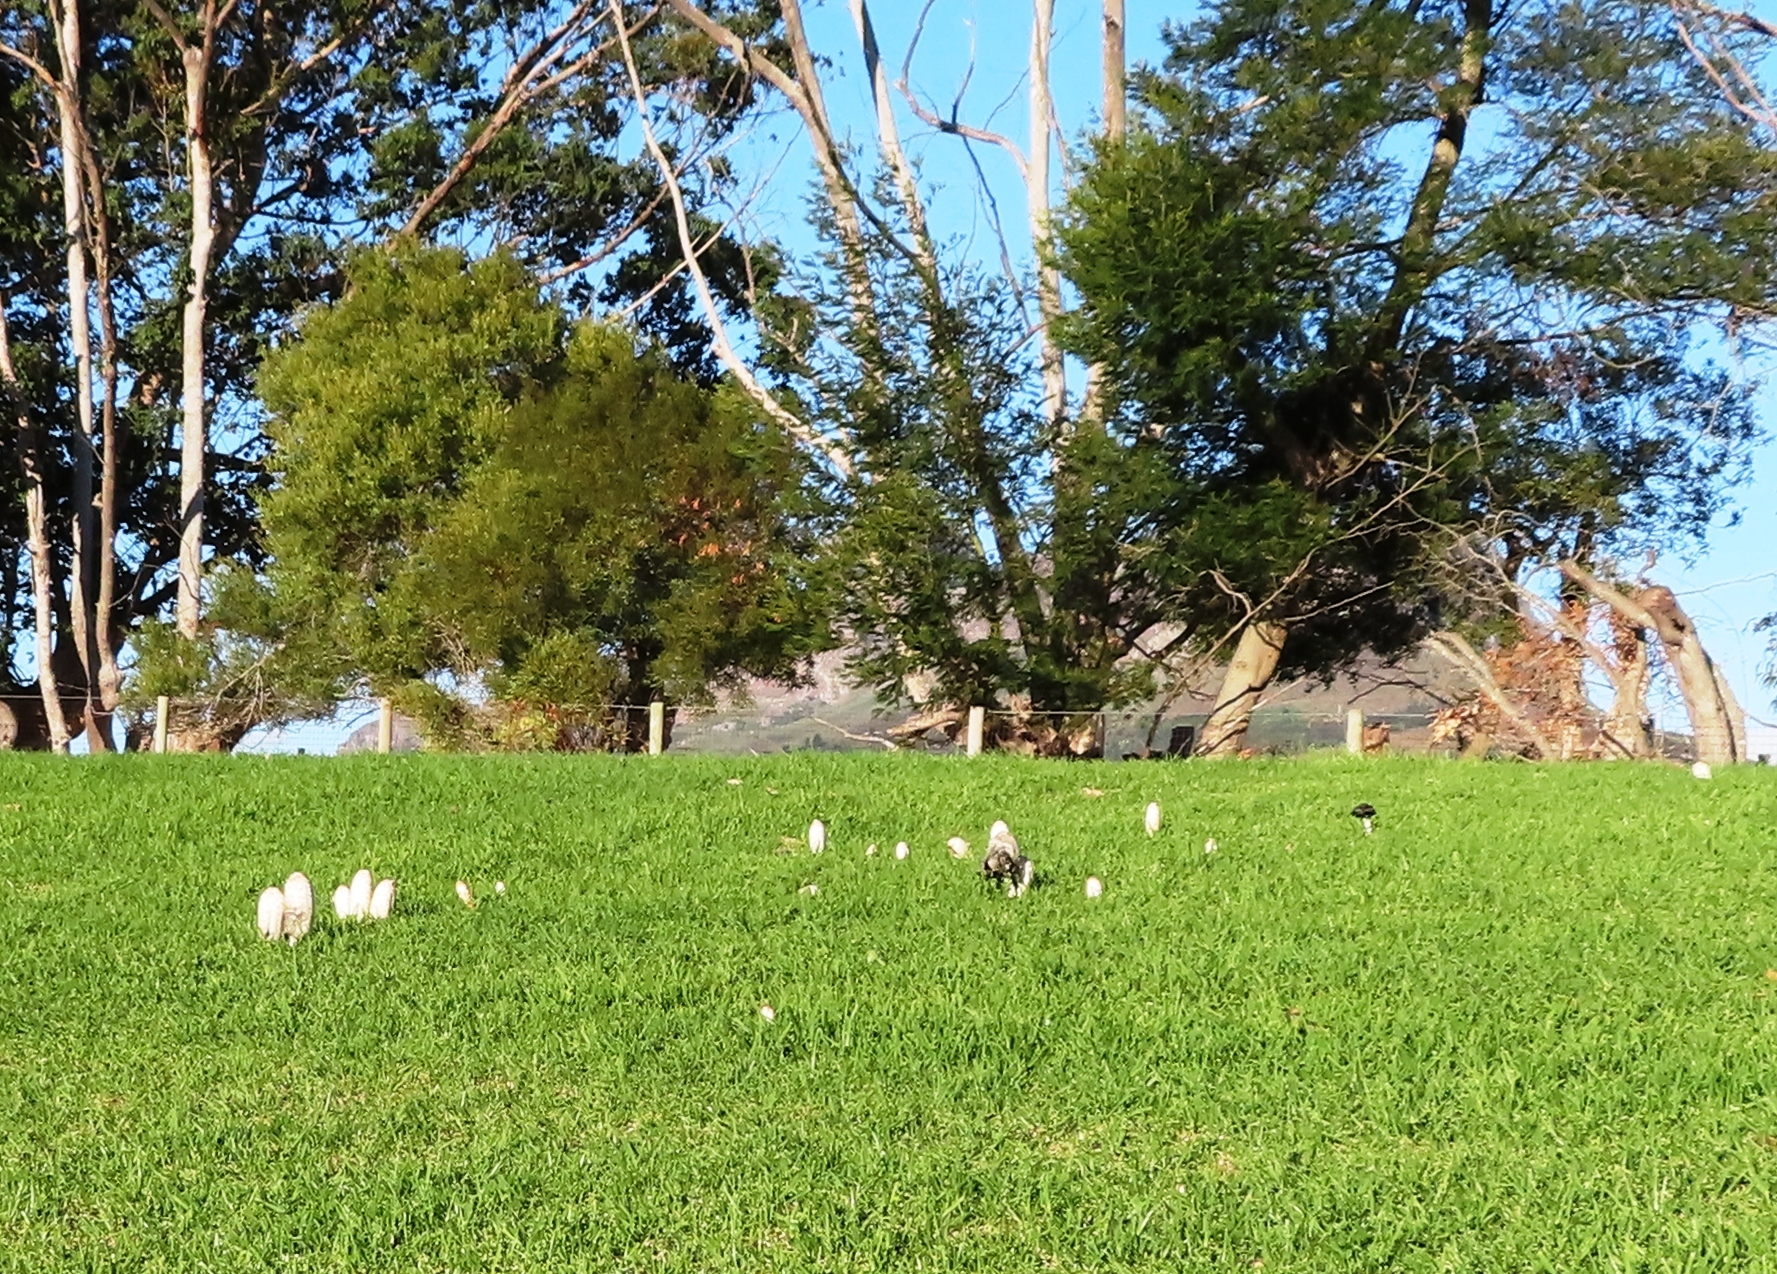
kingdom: Fungi
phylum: Basidiomycota
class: Agaricomycetes
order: Agaricales
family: Agaricaceae
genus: Coprinus
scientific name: Coprinus comatus
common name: Lawyer's wig
